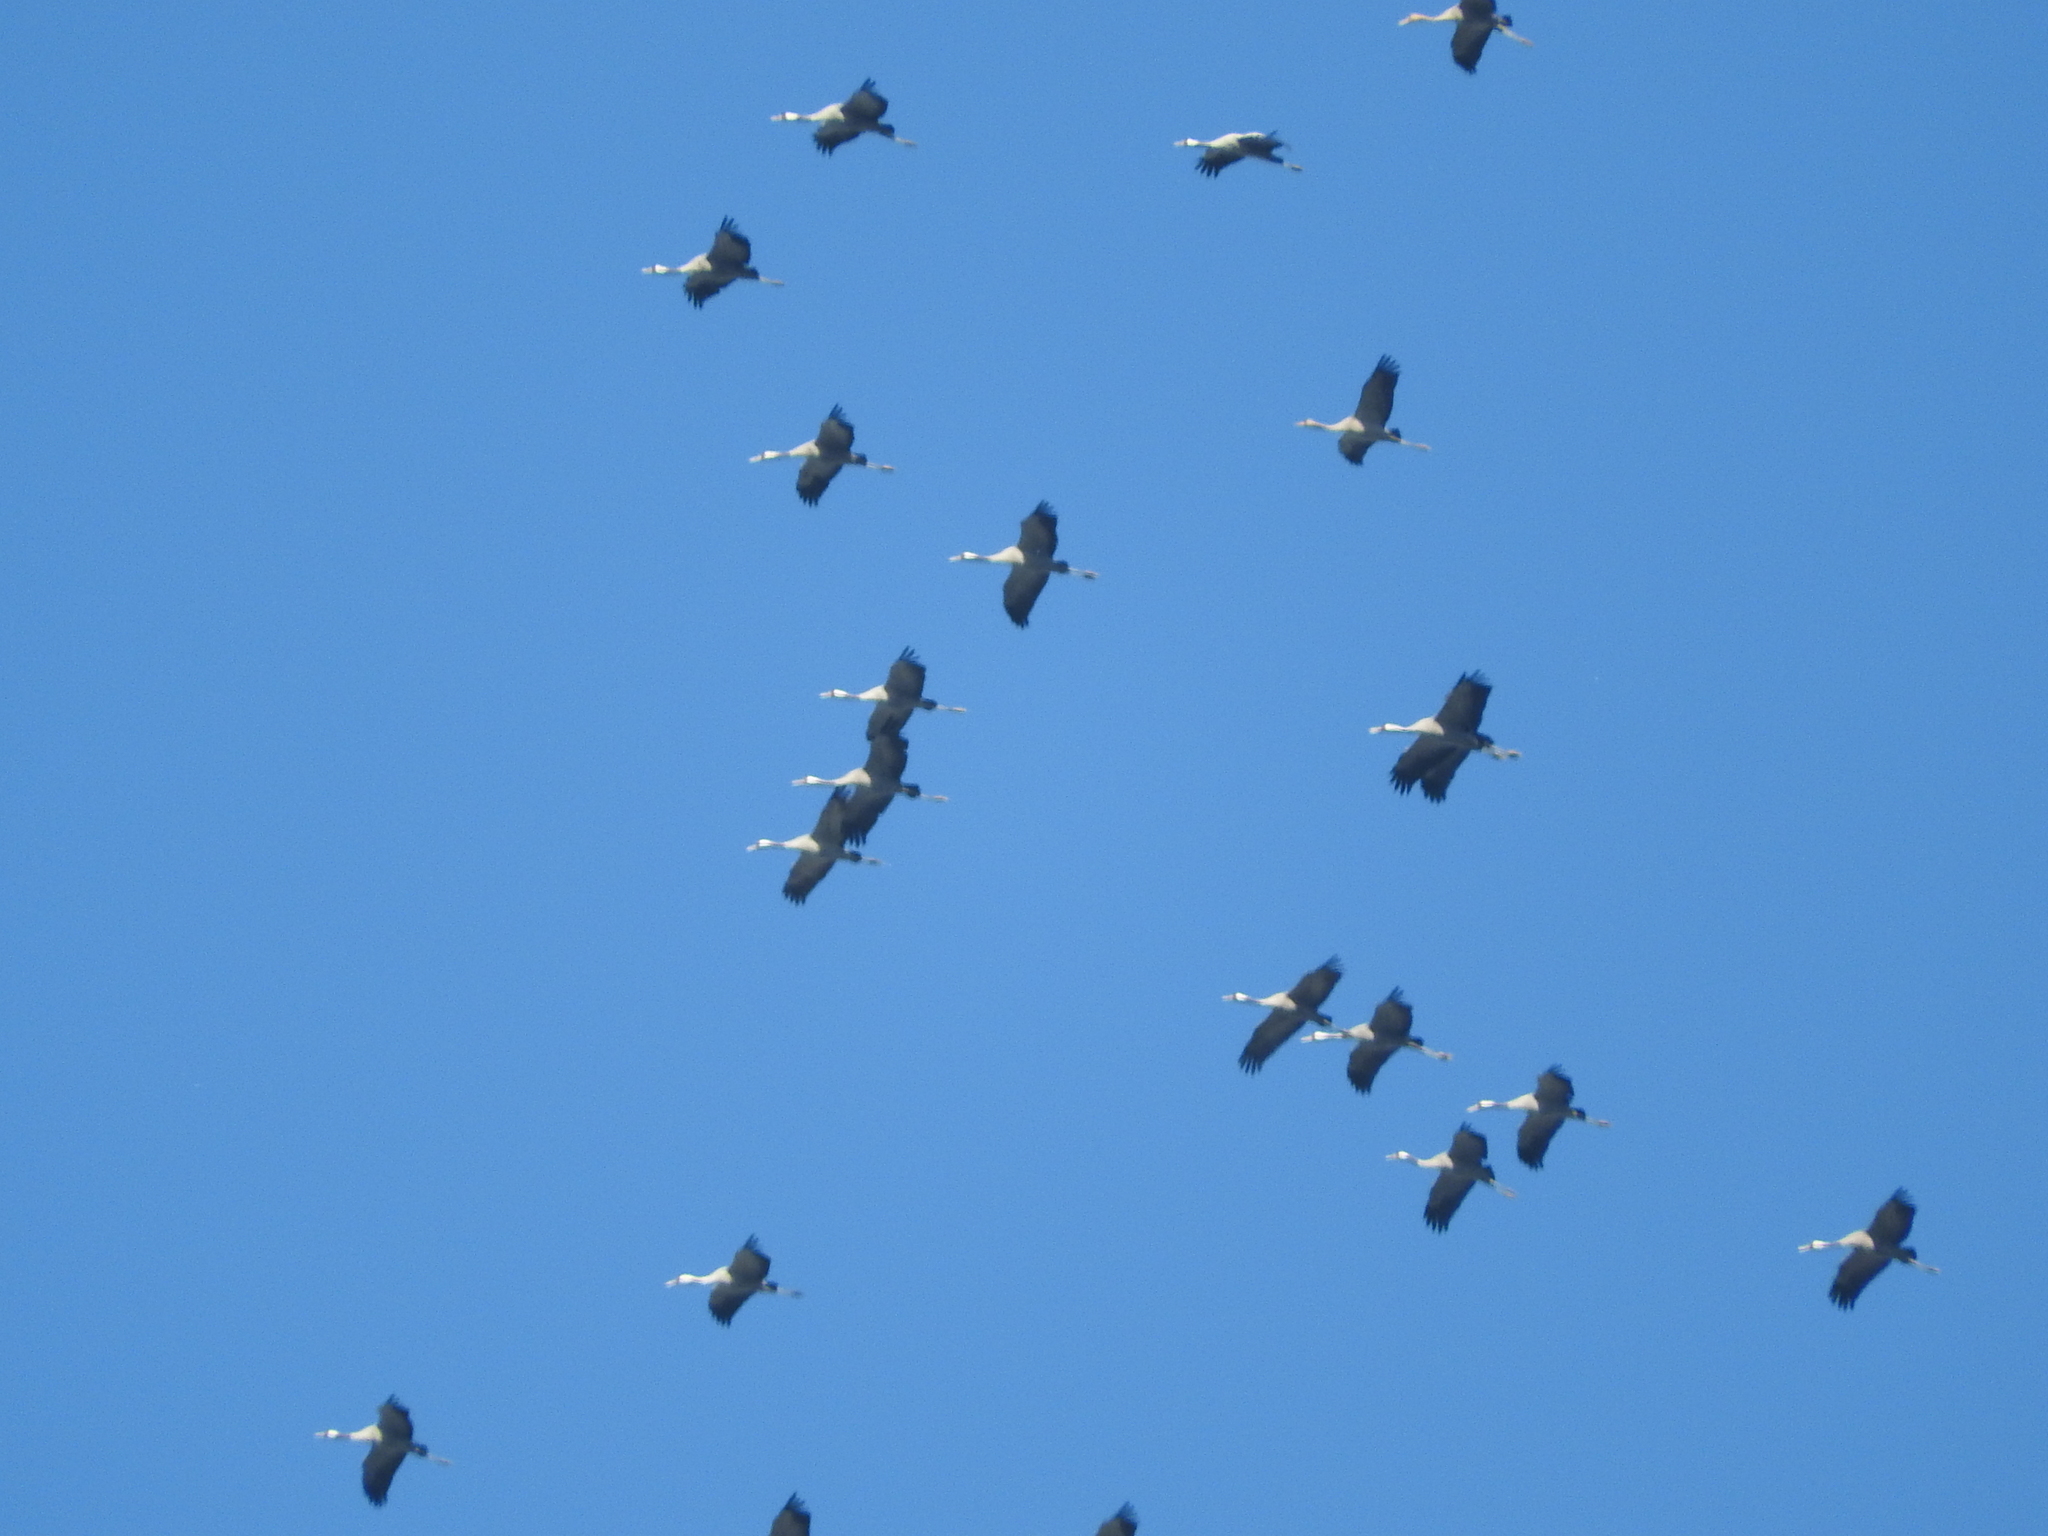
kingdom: Animalia
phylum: Chordata
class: Aves
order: Gruiformes
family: Gruidae
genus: Grus
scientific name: Grus grus
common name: Common crane
